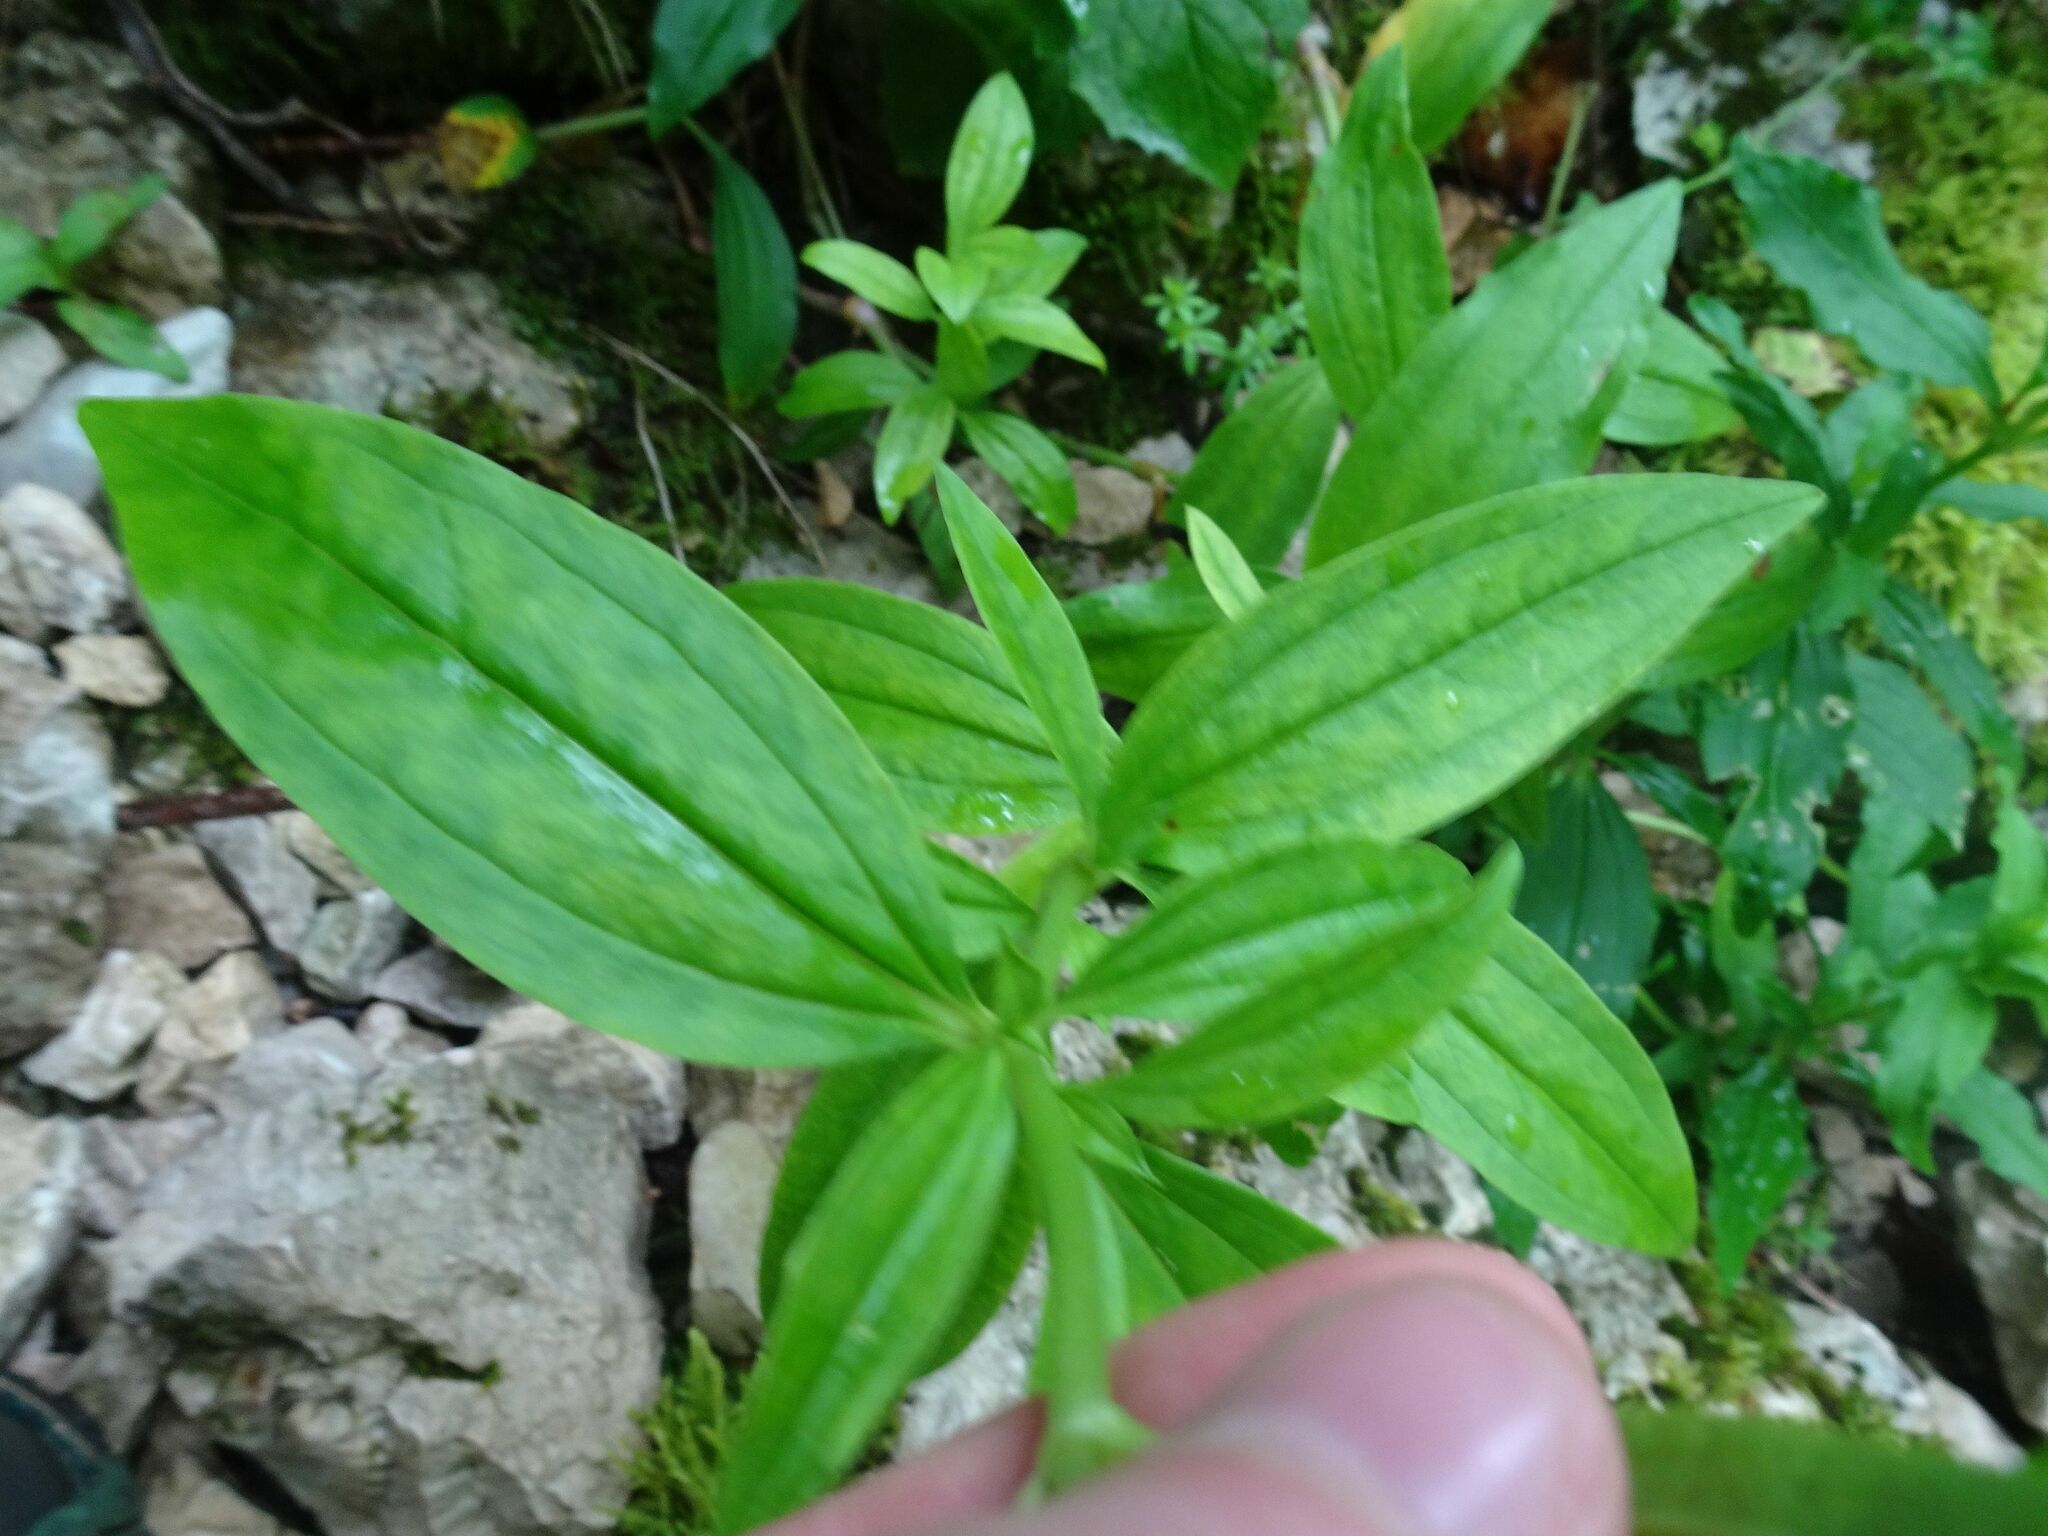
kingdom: Plantae
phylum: Tracheophyta
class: Magnoliopsida
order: Caryophyllales
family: Caryophyllaceae
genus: Saponaria
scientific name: Saponaria officinalis
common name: Soapwort
